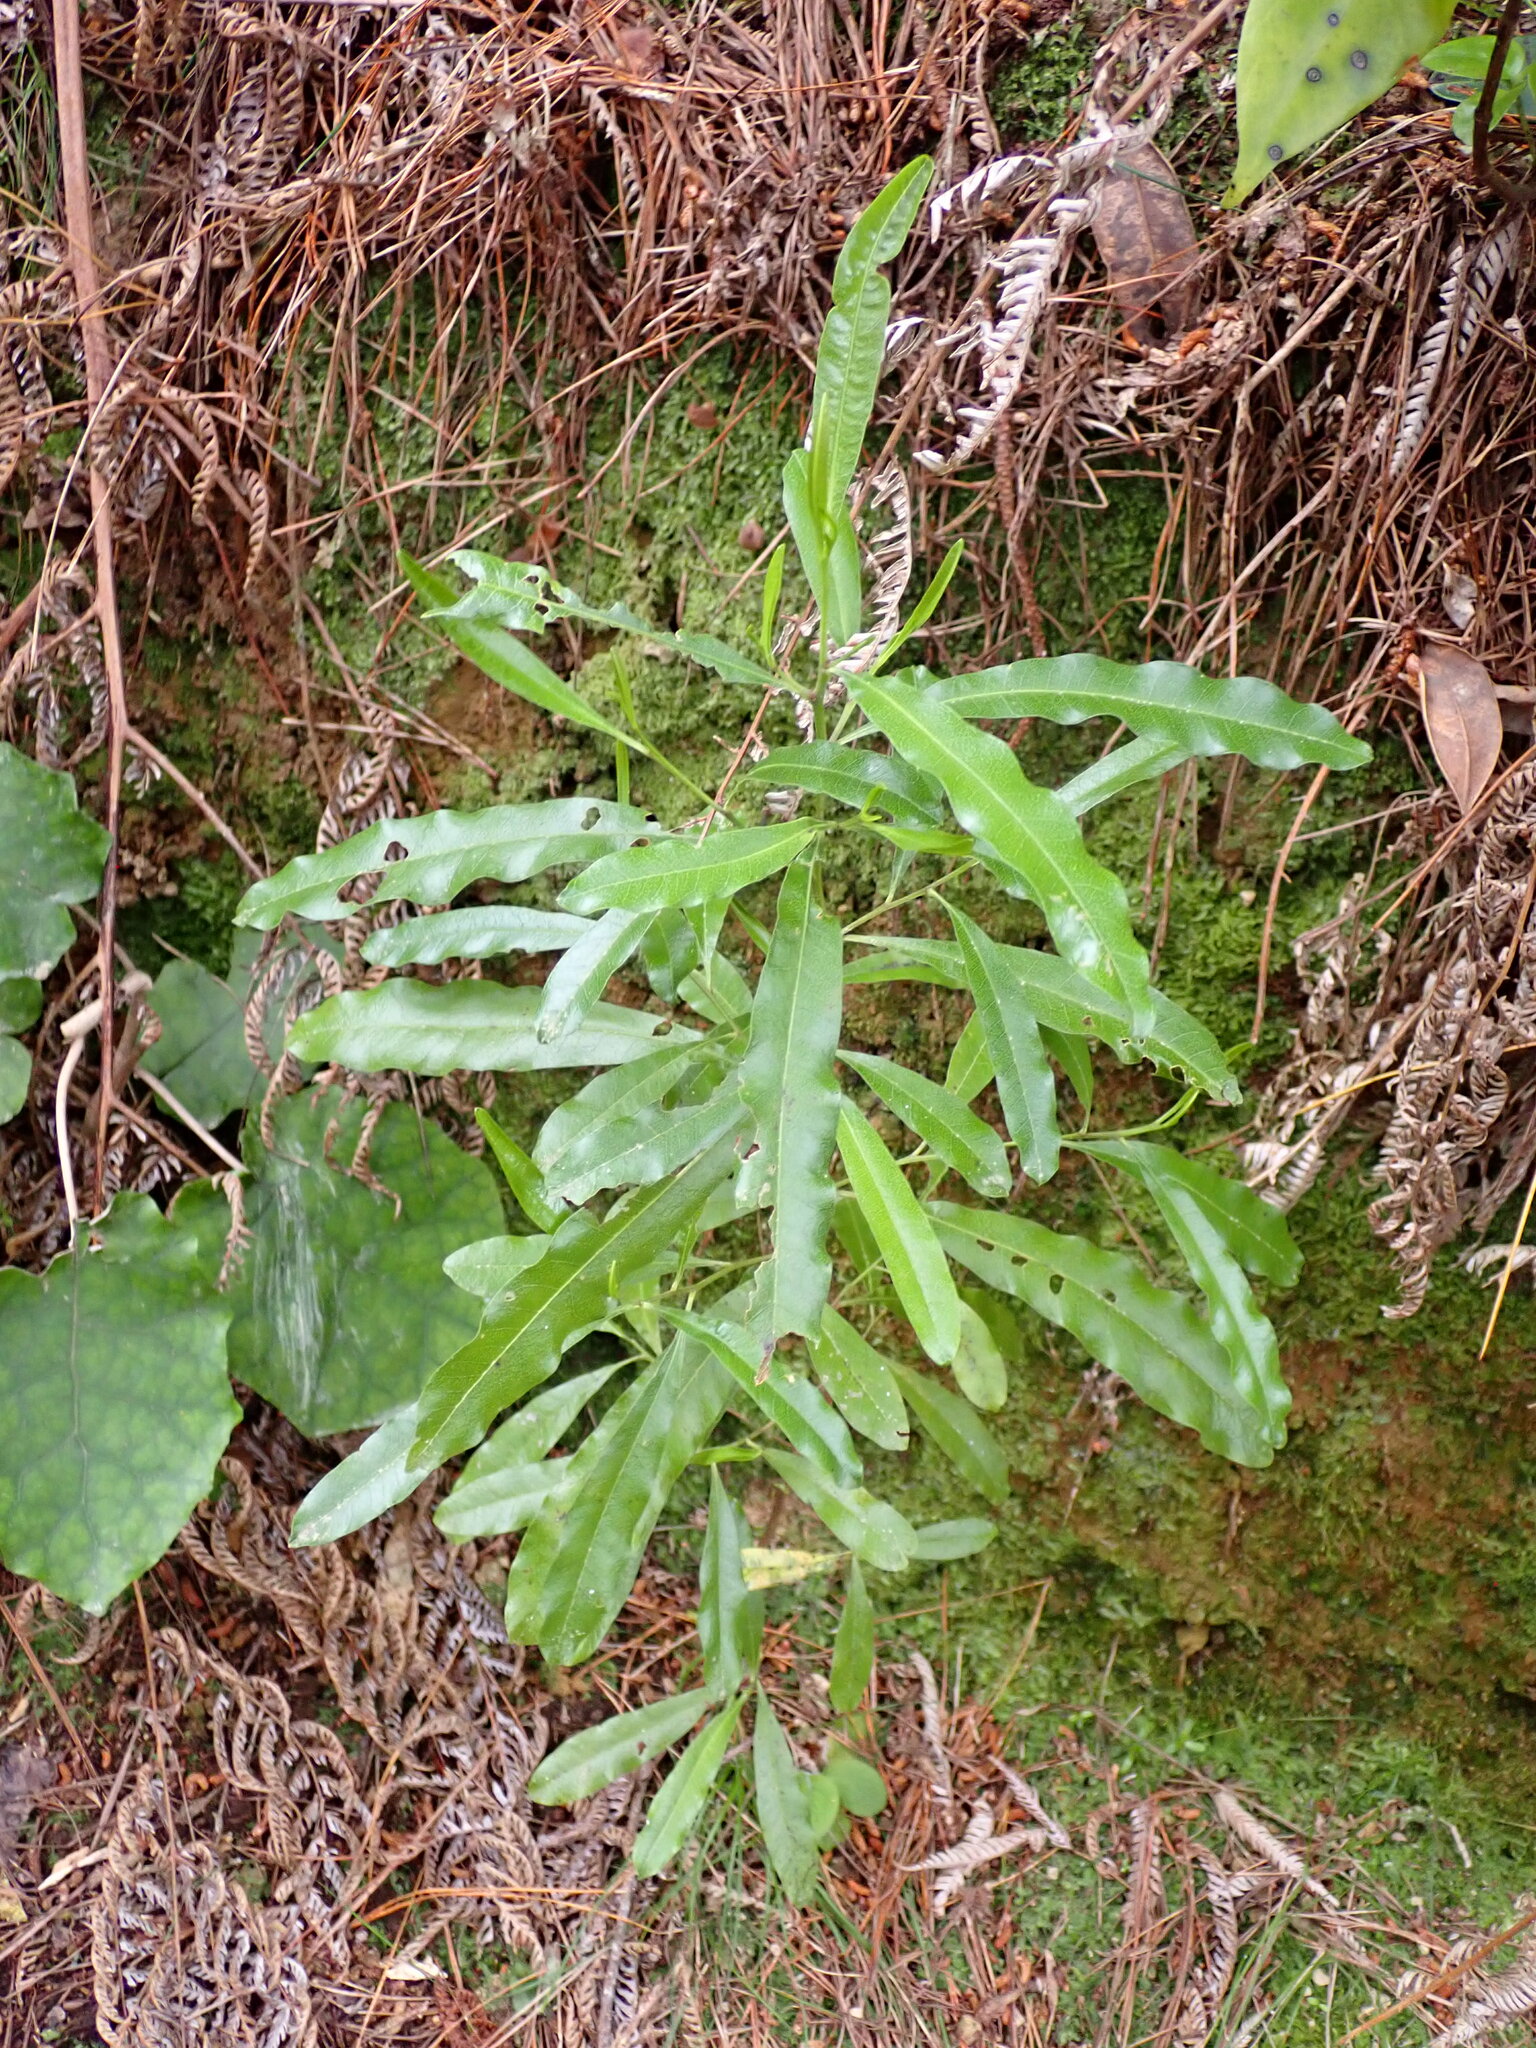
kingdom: Plantae
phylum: Tracheophyta
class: Magnoliopsida
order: Sapindales
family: Sapindaceae
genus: Dodonaea
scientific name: Dodonaea viscosa
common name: Hopbush
